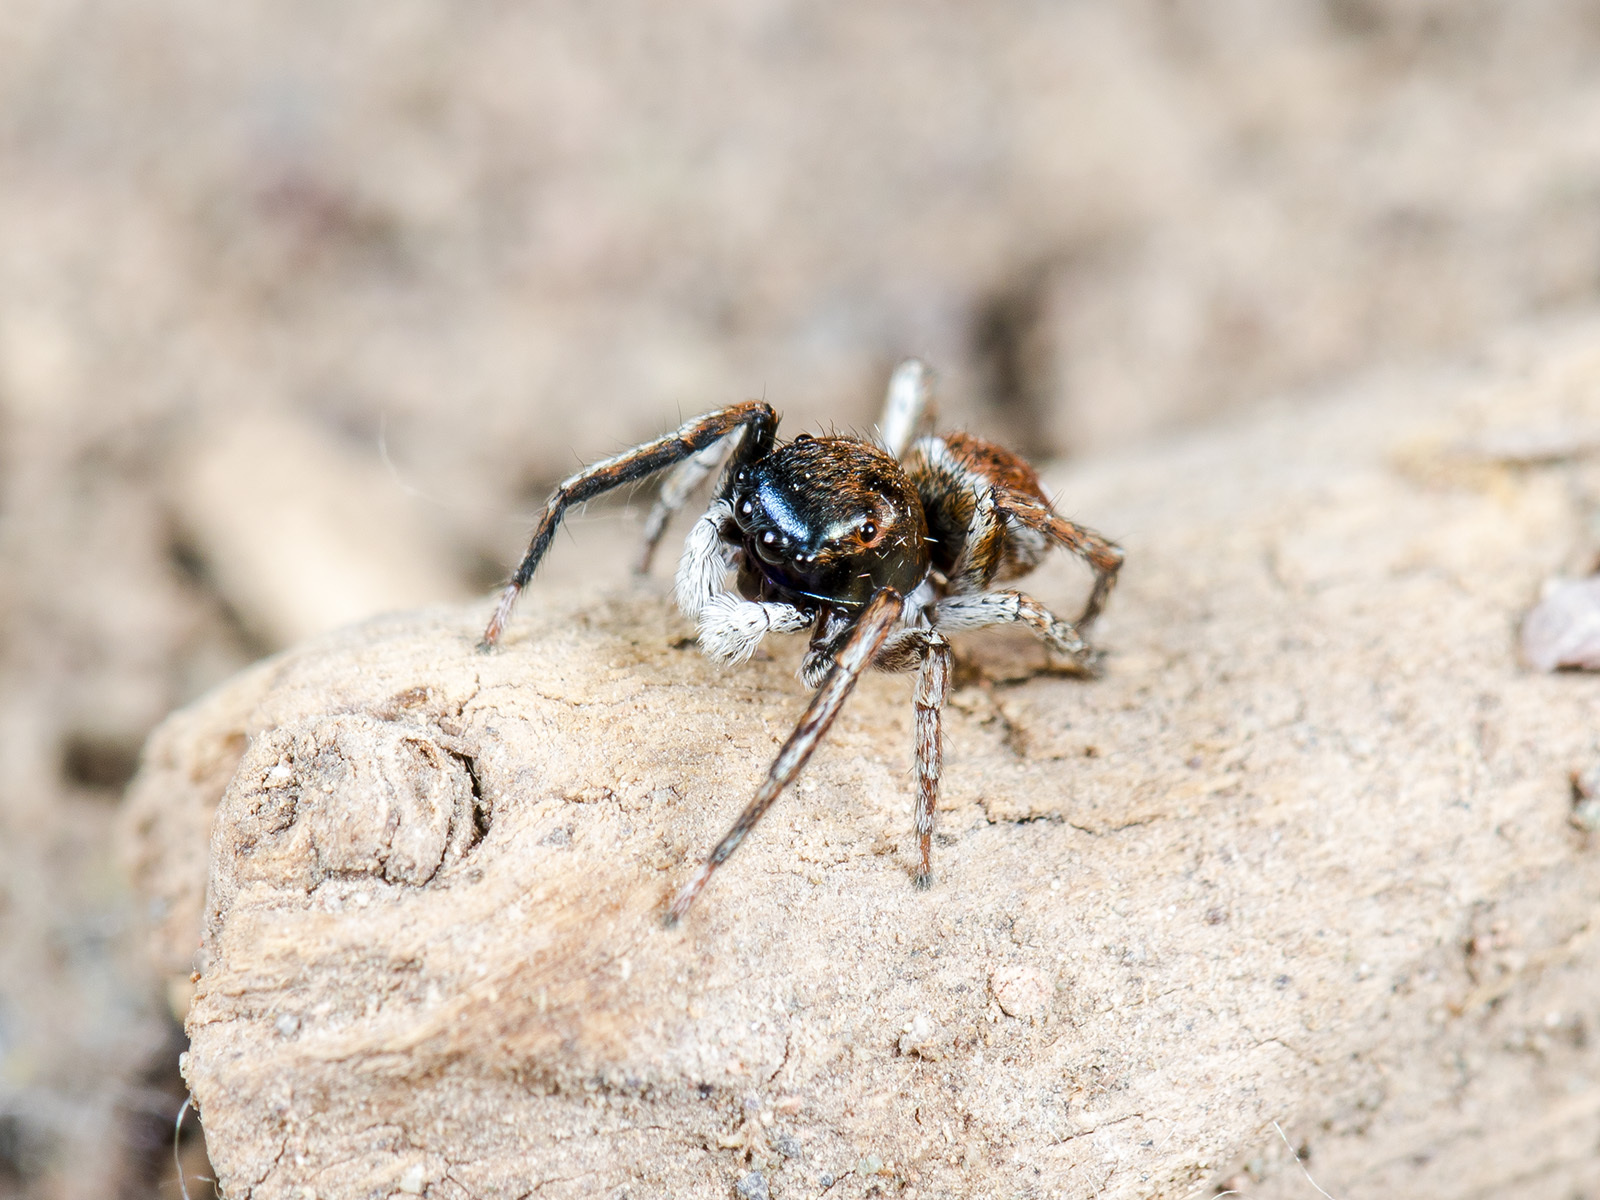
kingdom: Animalia
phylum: Arthropoda
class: Arachnida
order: Araneae
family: Salticidae
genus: Attulus
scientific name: Attulus mirandus
